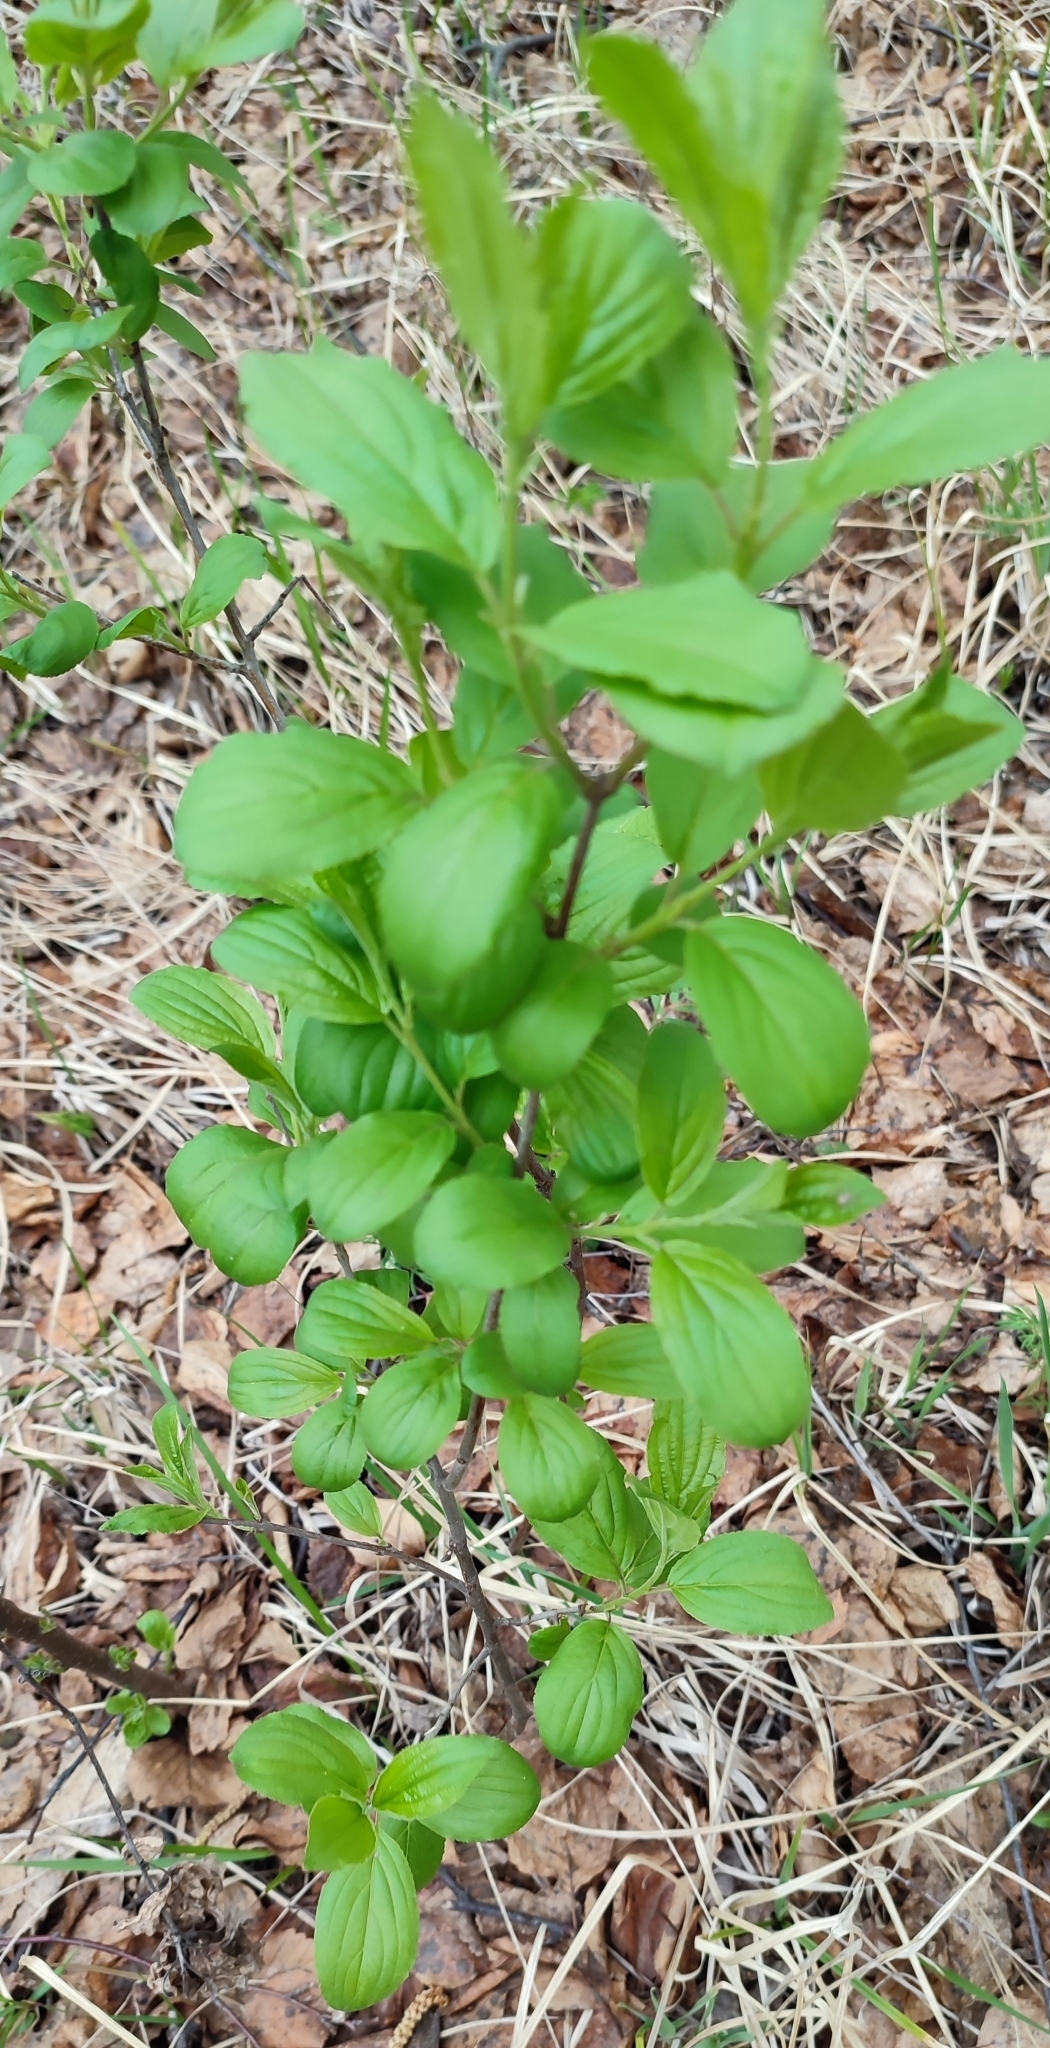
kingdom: Plantae
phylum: Tracheophyta
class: Magnoliopsida
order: Rosales
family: Rhamnaceae
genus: Rhamnus
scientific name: Rhamnus cathartica
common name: Common buckthorn
